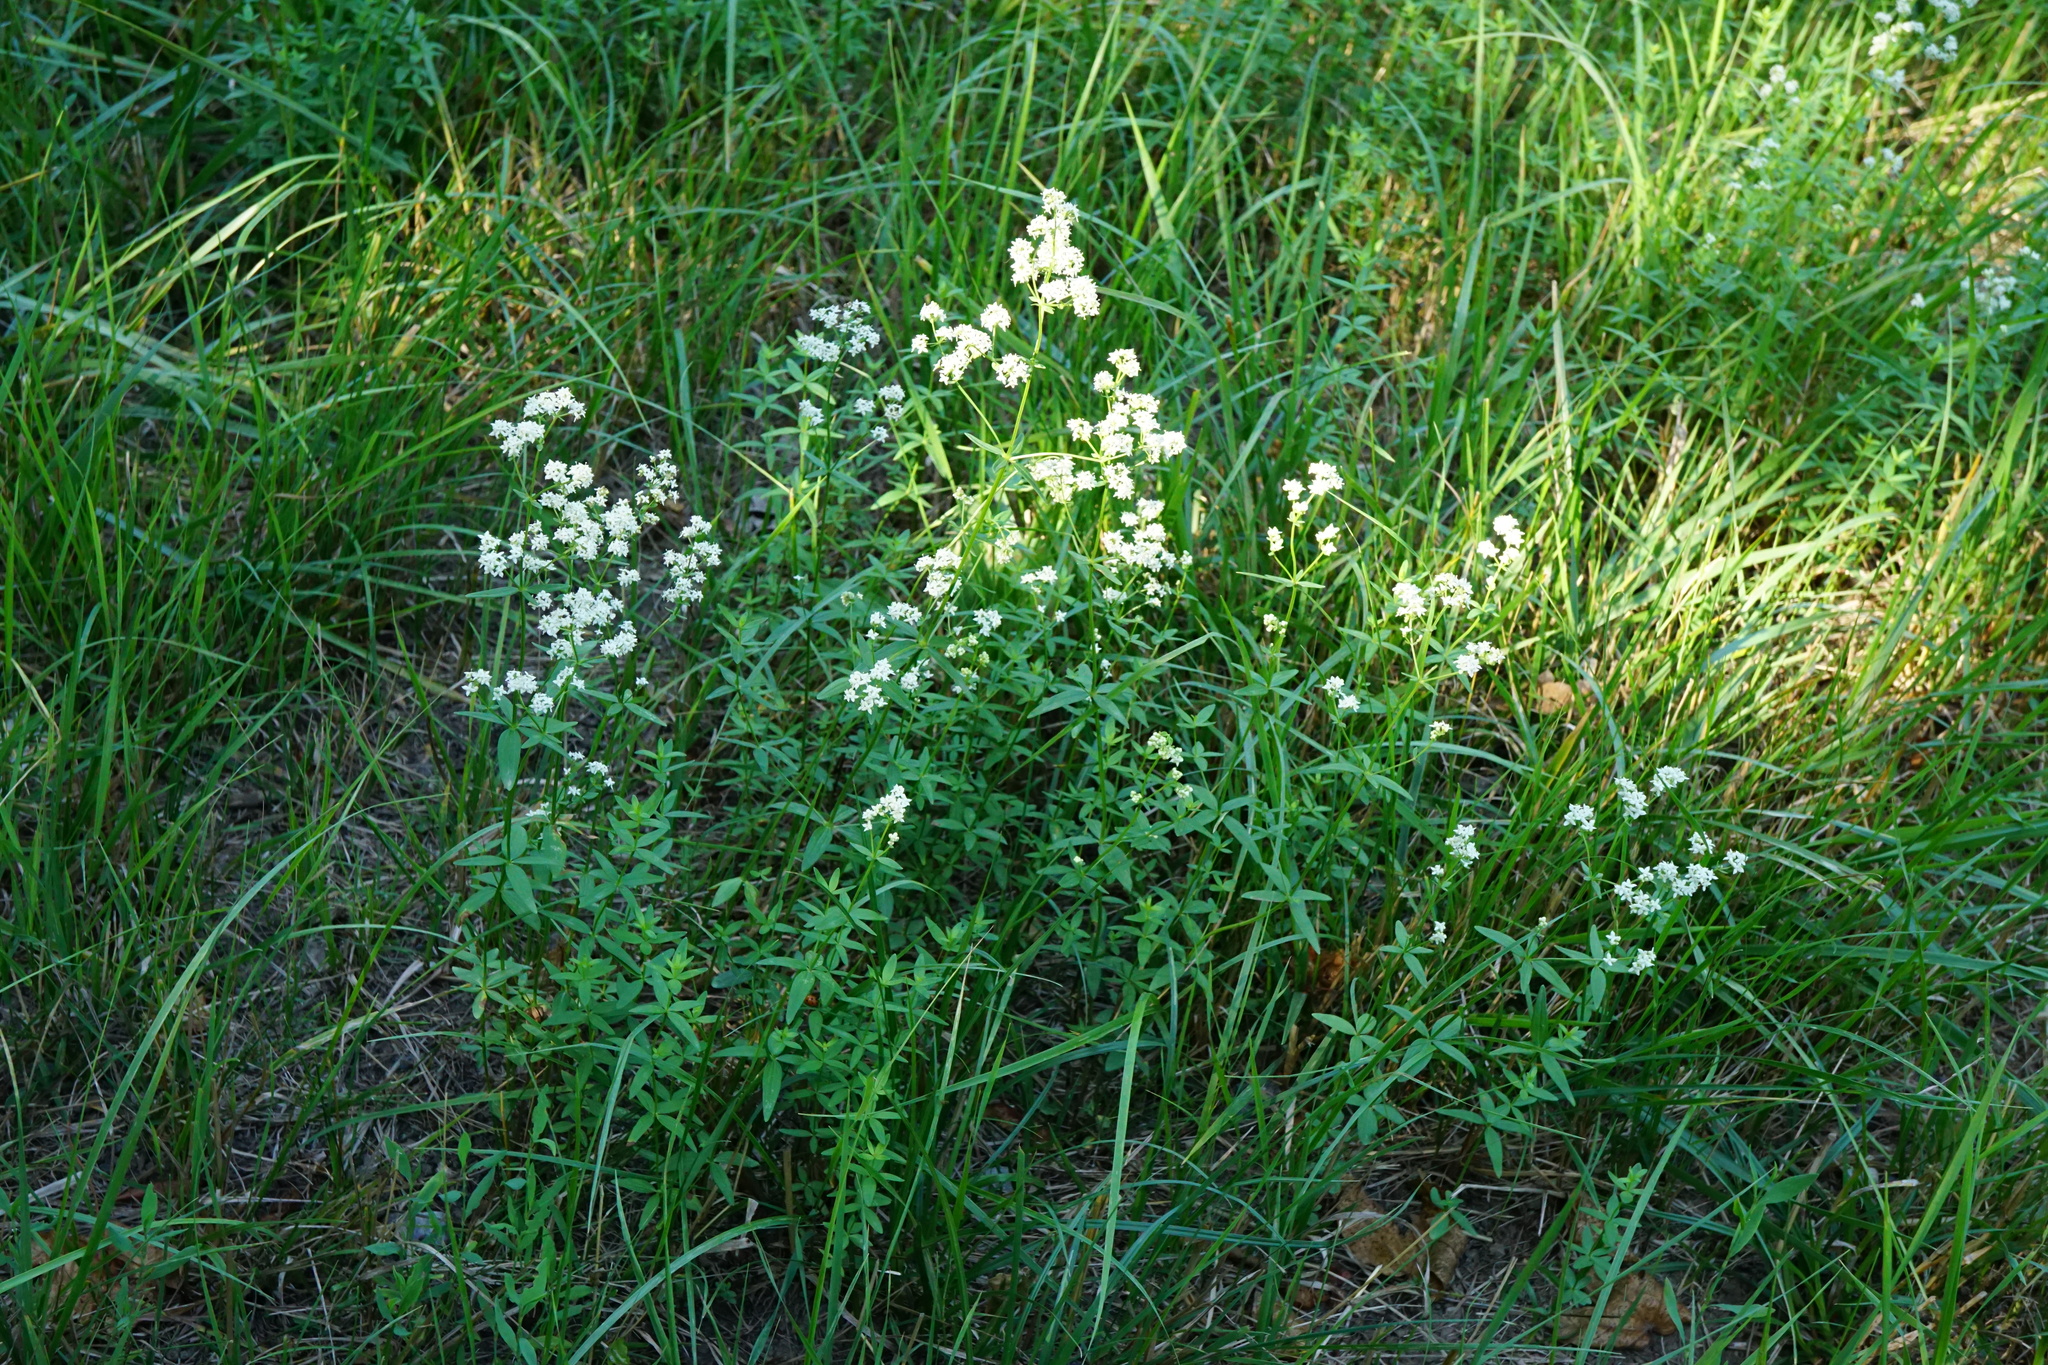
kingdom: Plantae
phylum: Tracheophyta
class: Magnoliopsida
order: Gentianales
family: Rubiaceae
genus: Galium
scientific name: Galium boreale
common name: Northern bedstraw
